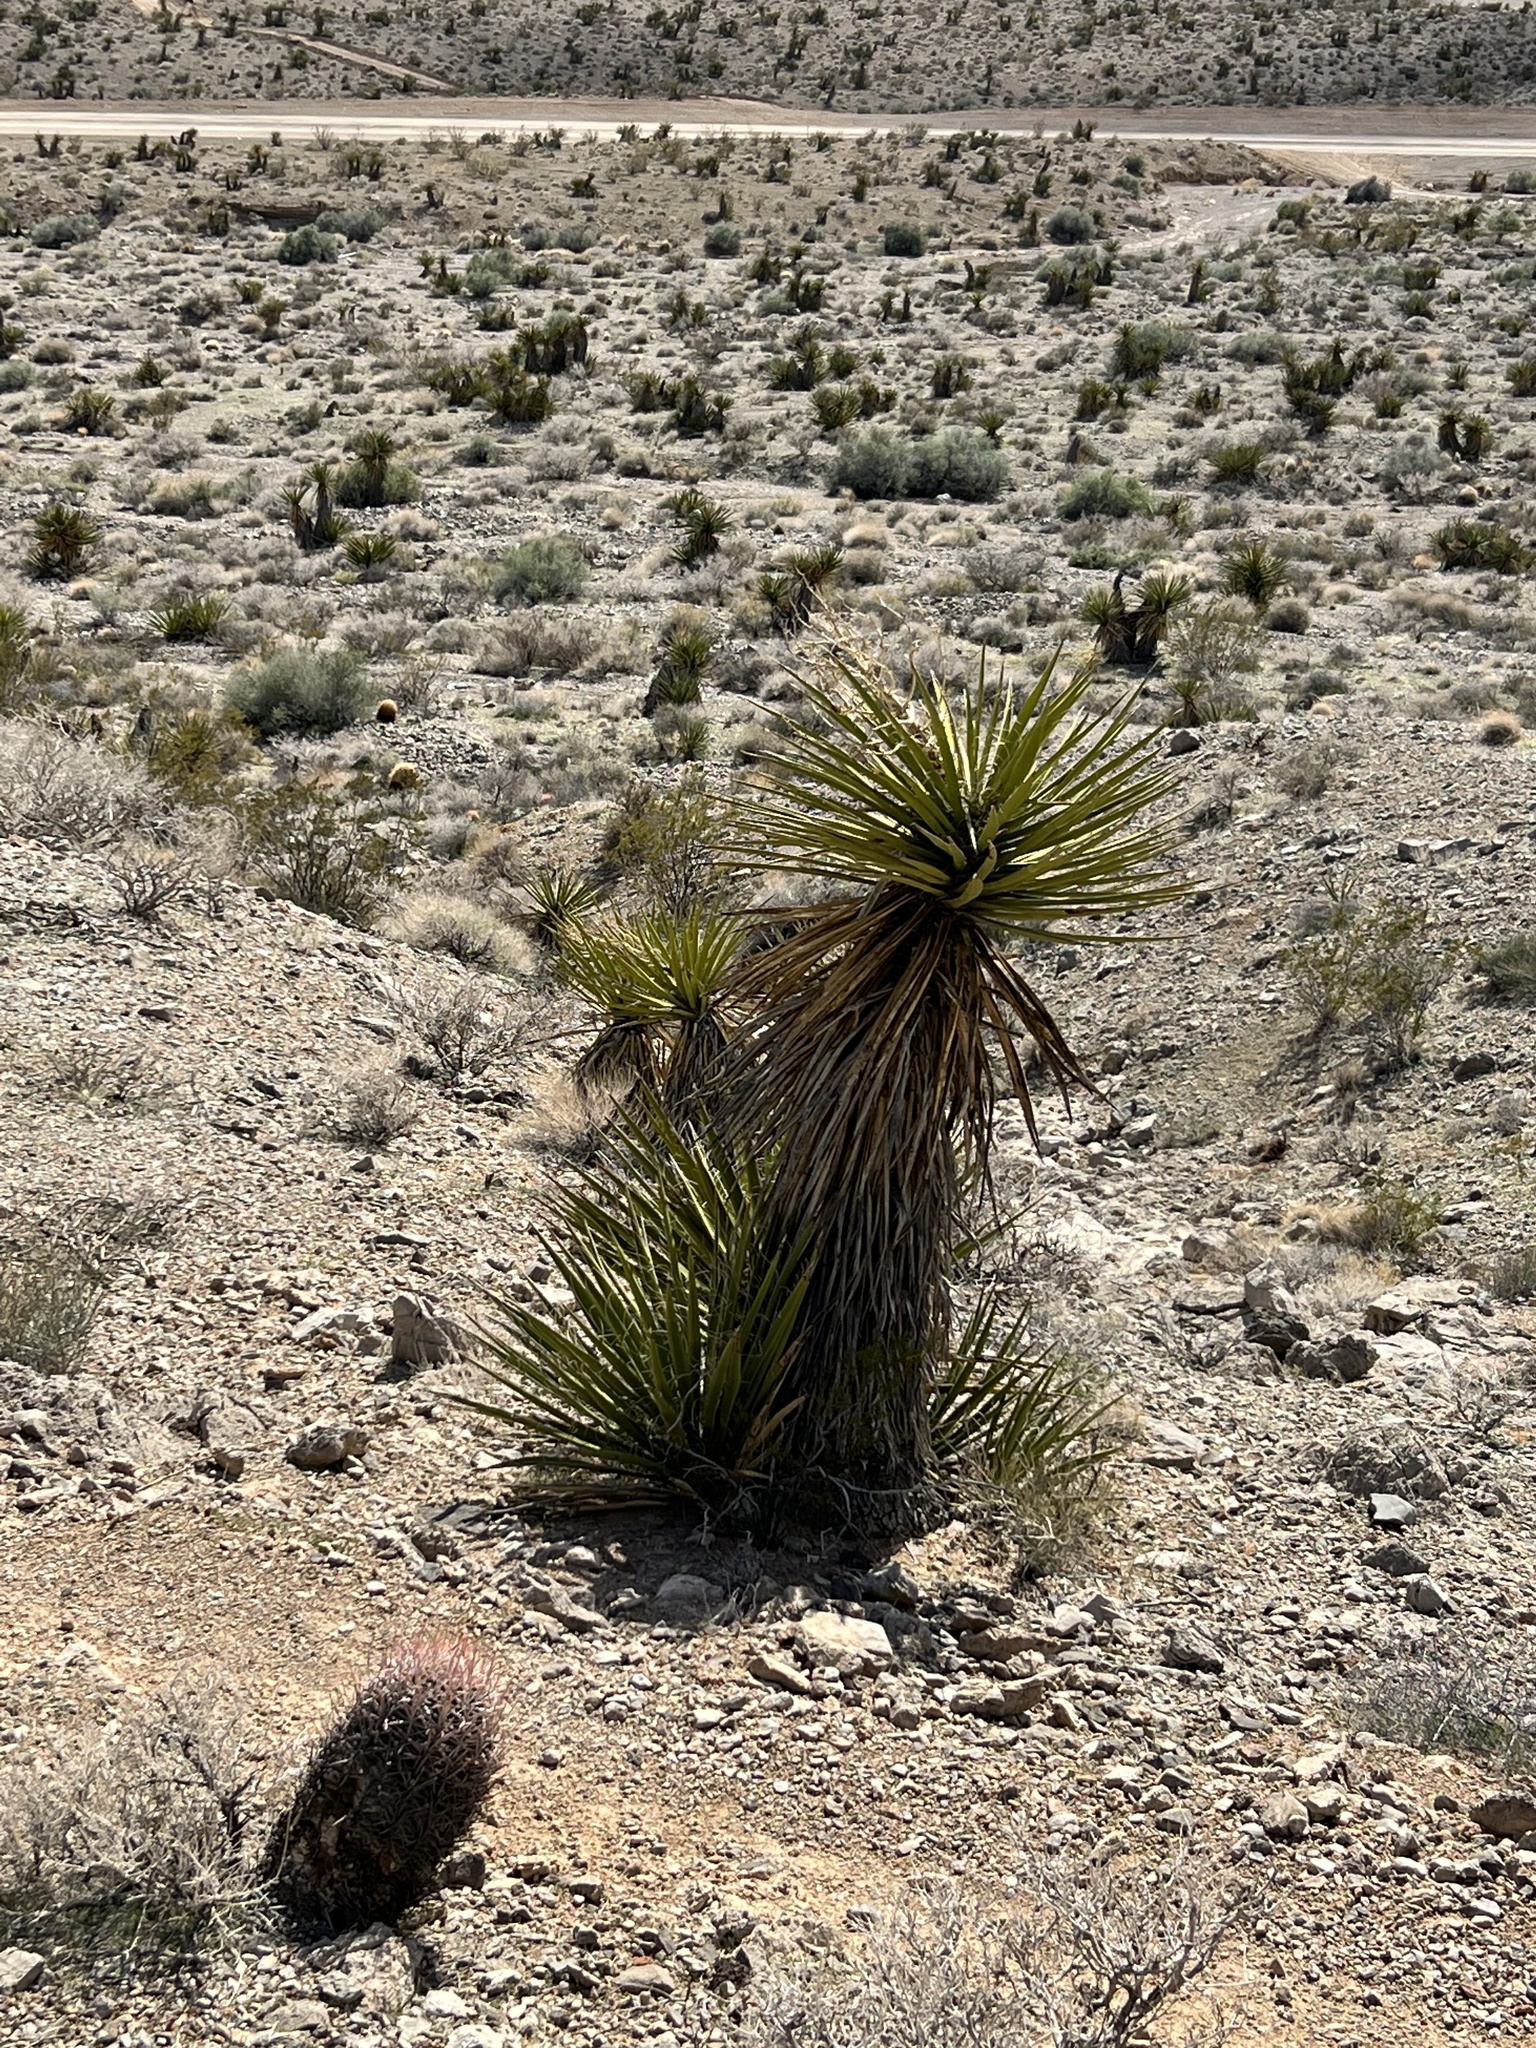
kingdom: Plantae
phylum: Tracheophyta
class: Liliopsida
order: Asparagales
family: Asparagaceae
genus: Yucca
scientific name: Yucca schidigera
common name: Mojave yucca
